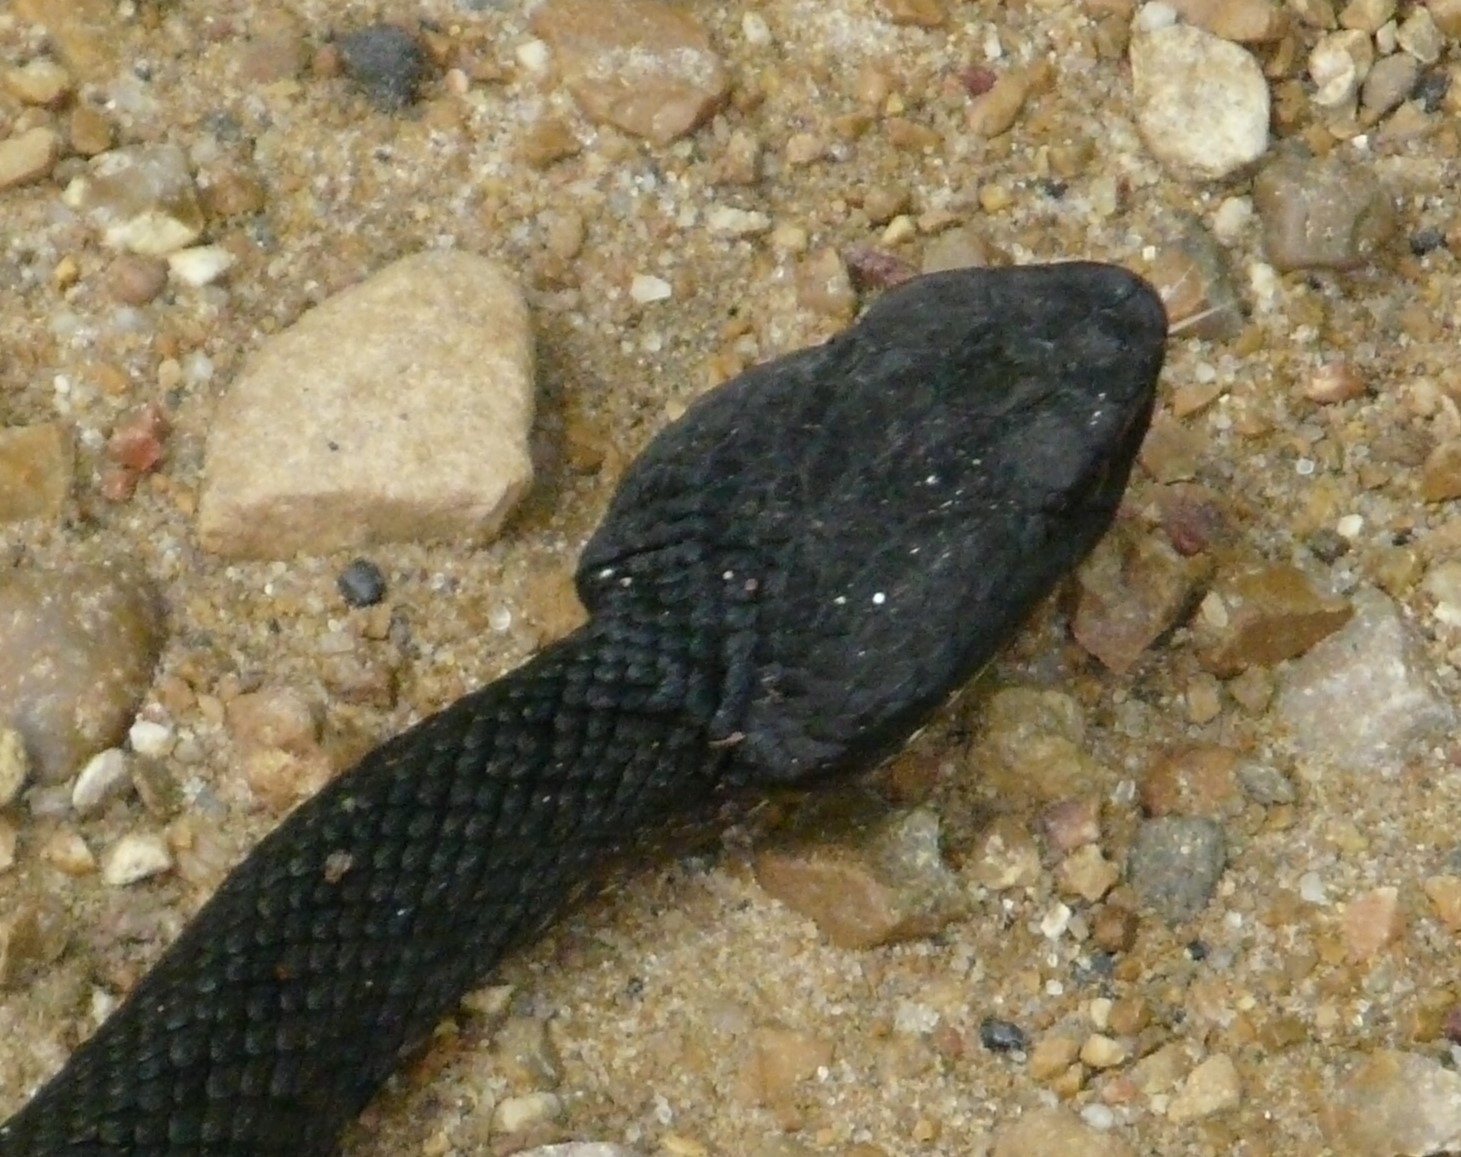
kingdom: Animalia
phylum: Chordata
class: Squamata
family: Viperidae
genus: Agkistrodon
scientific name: Agkistrodon piscivorus
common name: Cottonmouth
